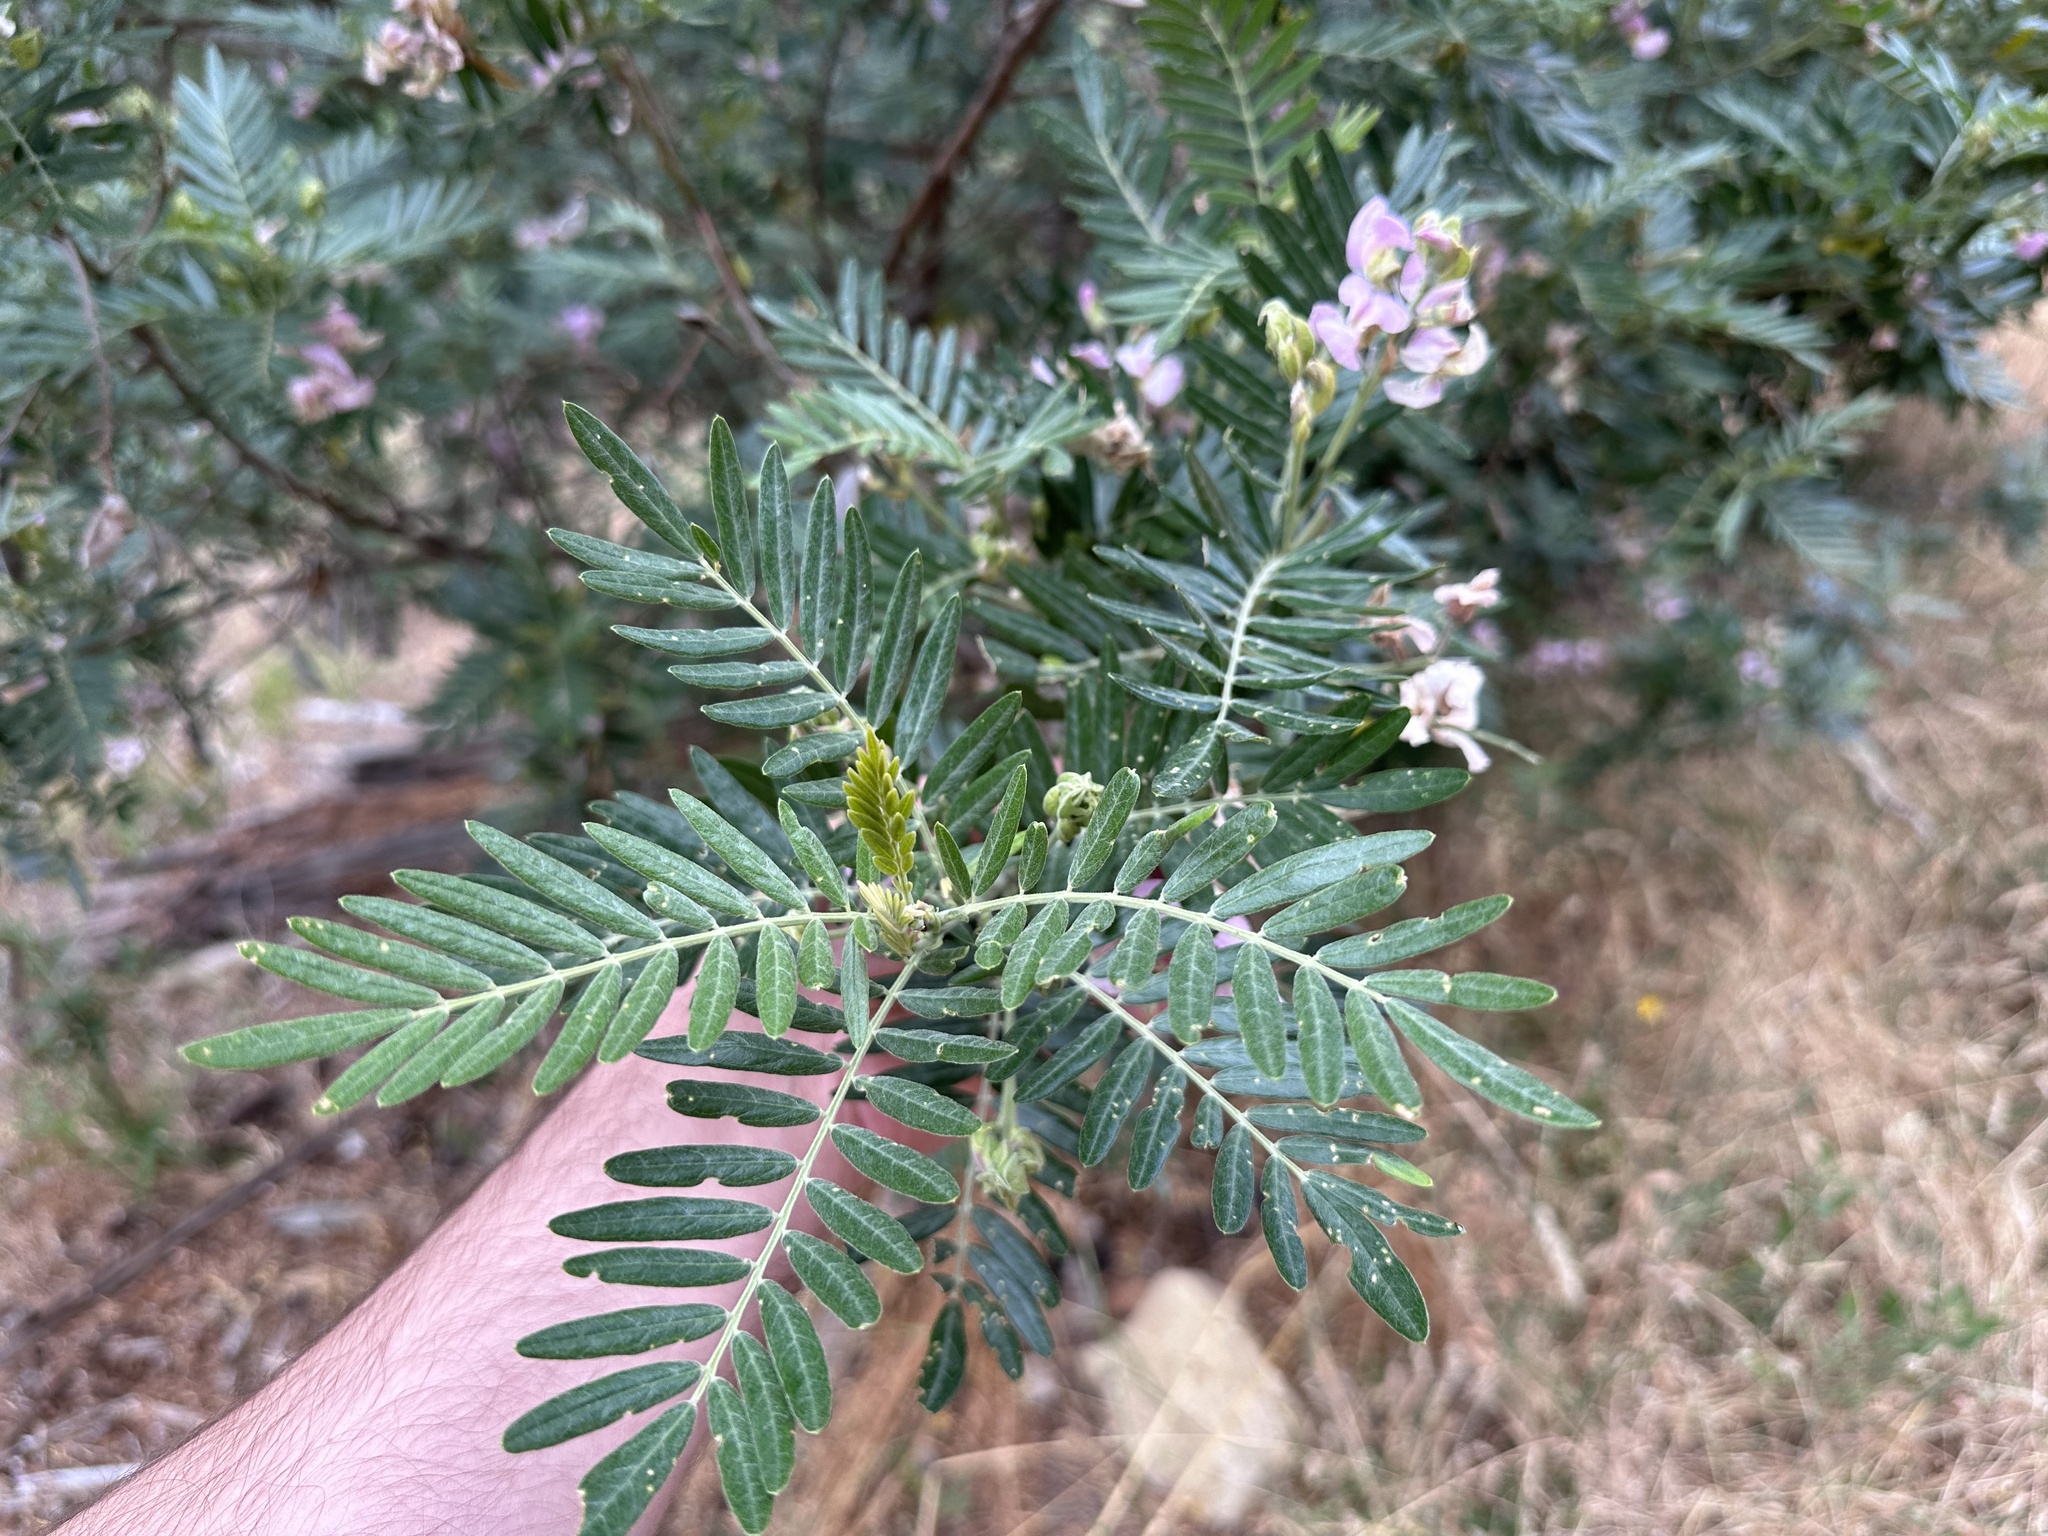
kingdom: Plantae
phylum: Tracheophyta
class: Magnoliopsida
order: Fabales
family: Fabaceae
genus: Virgilia
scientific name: Virgilia oroboides
